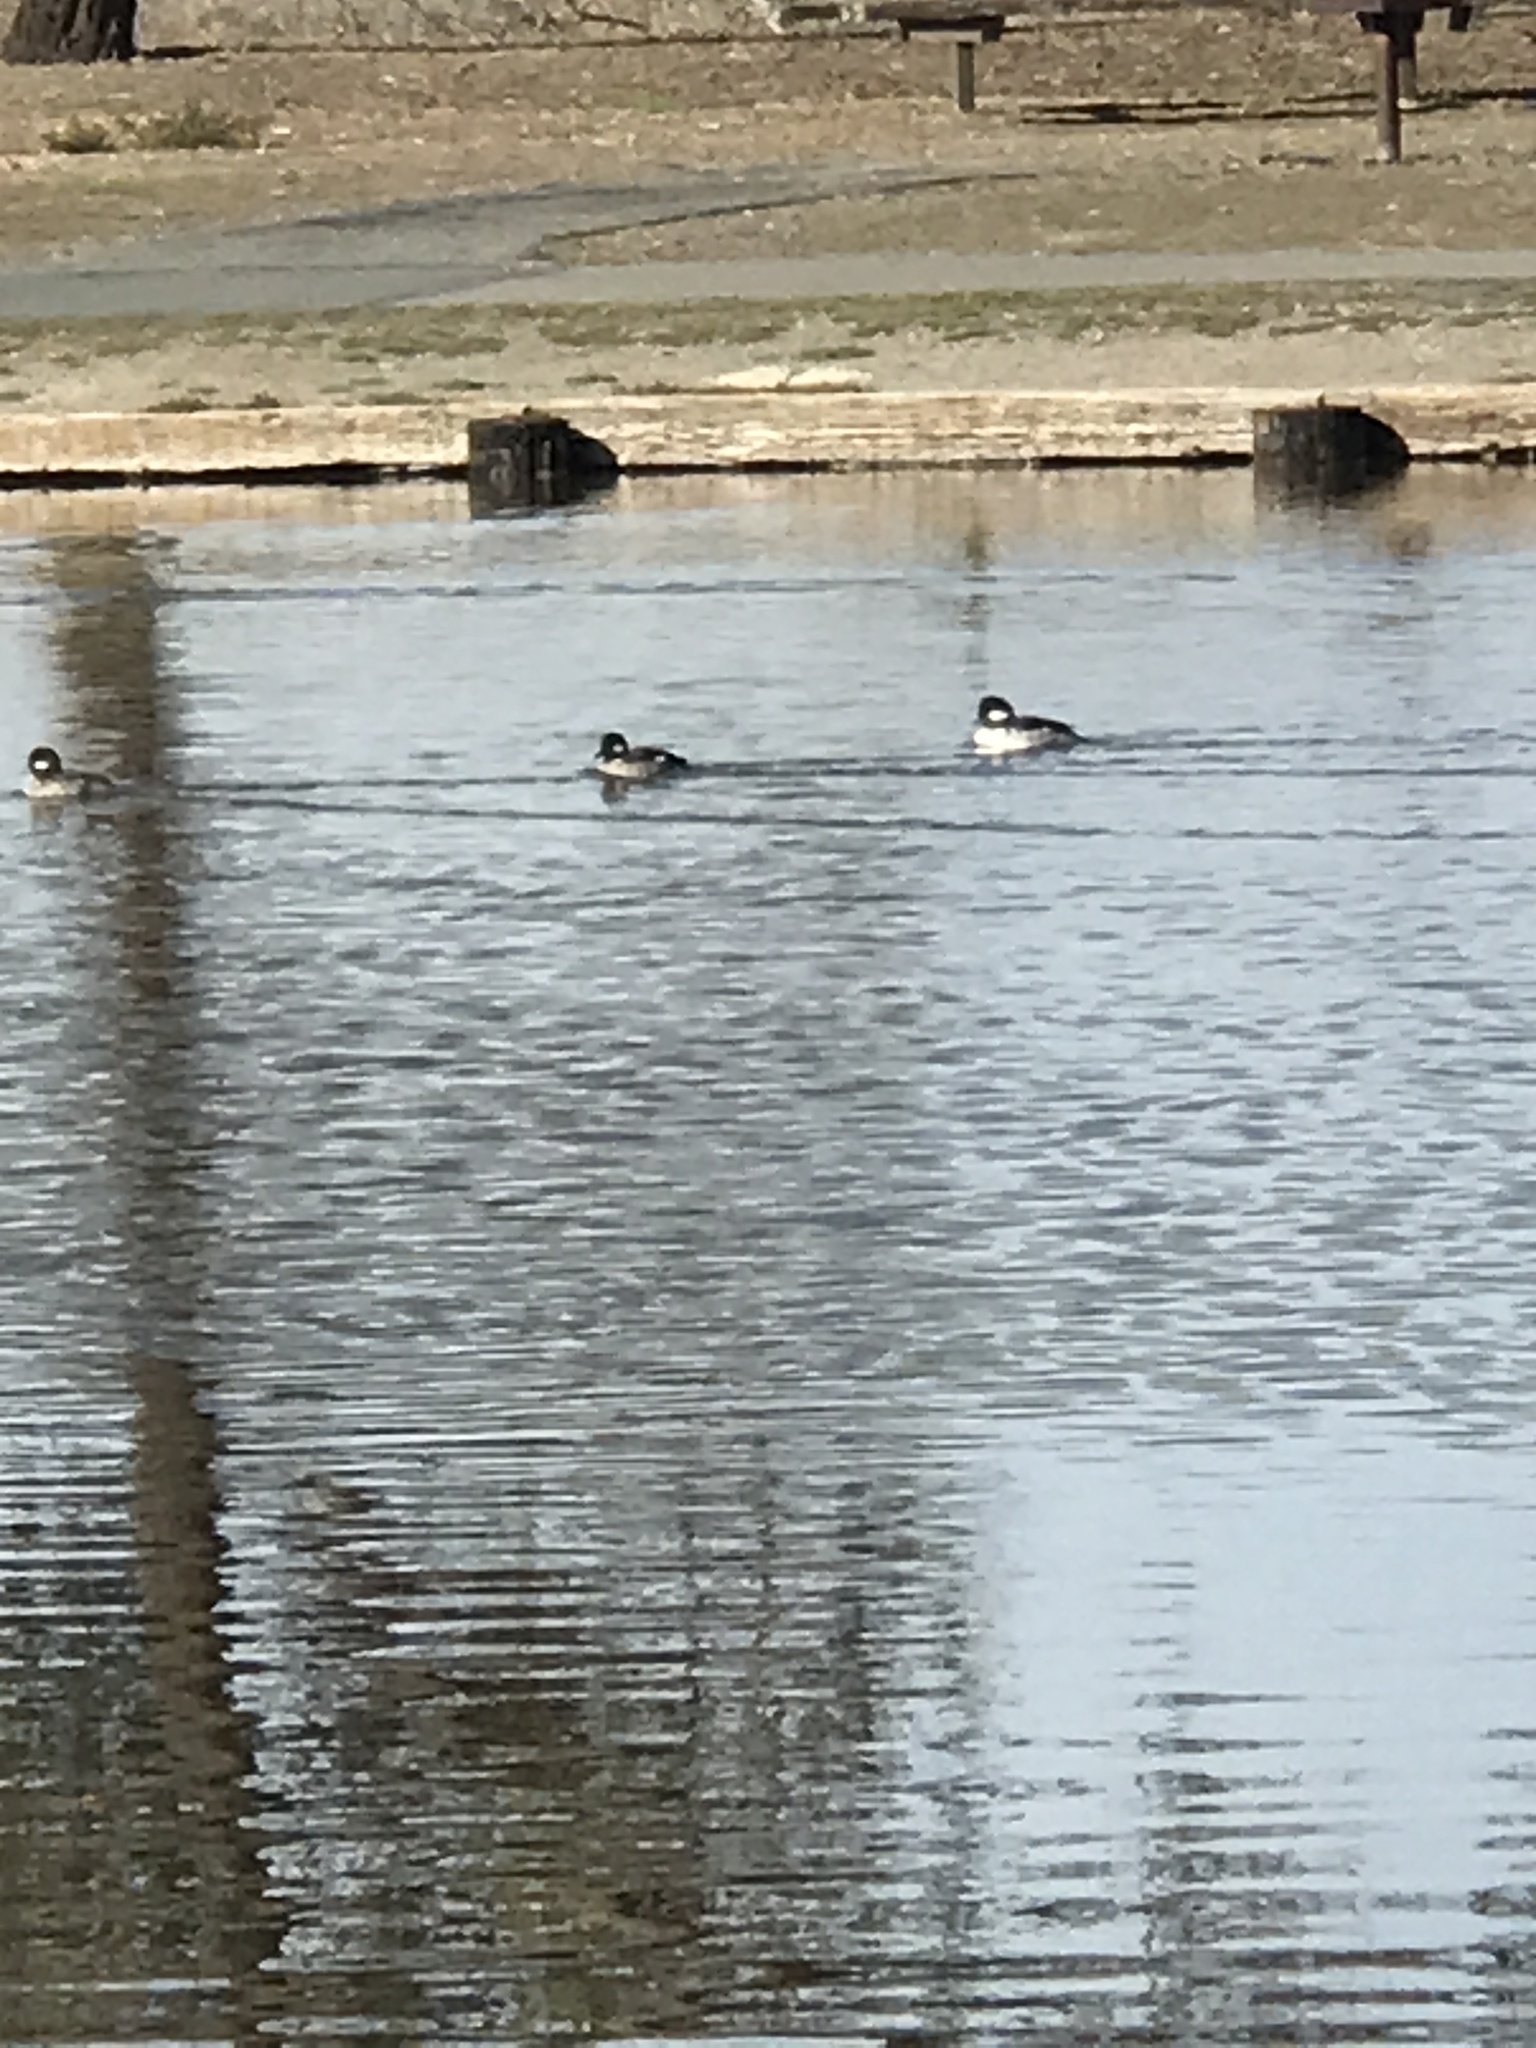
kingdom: Animalia
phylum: Chordata
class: Aves
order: Anseriformes
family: Anatidae
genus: Bucephala
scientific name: Bucephala albeola
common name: Bufflehead
